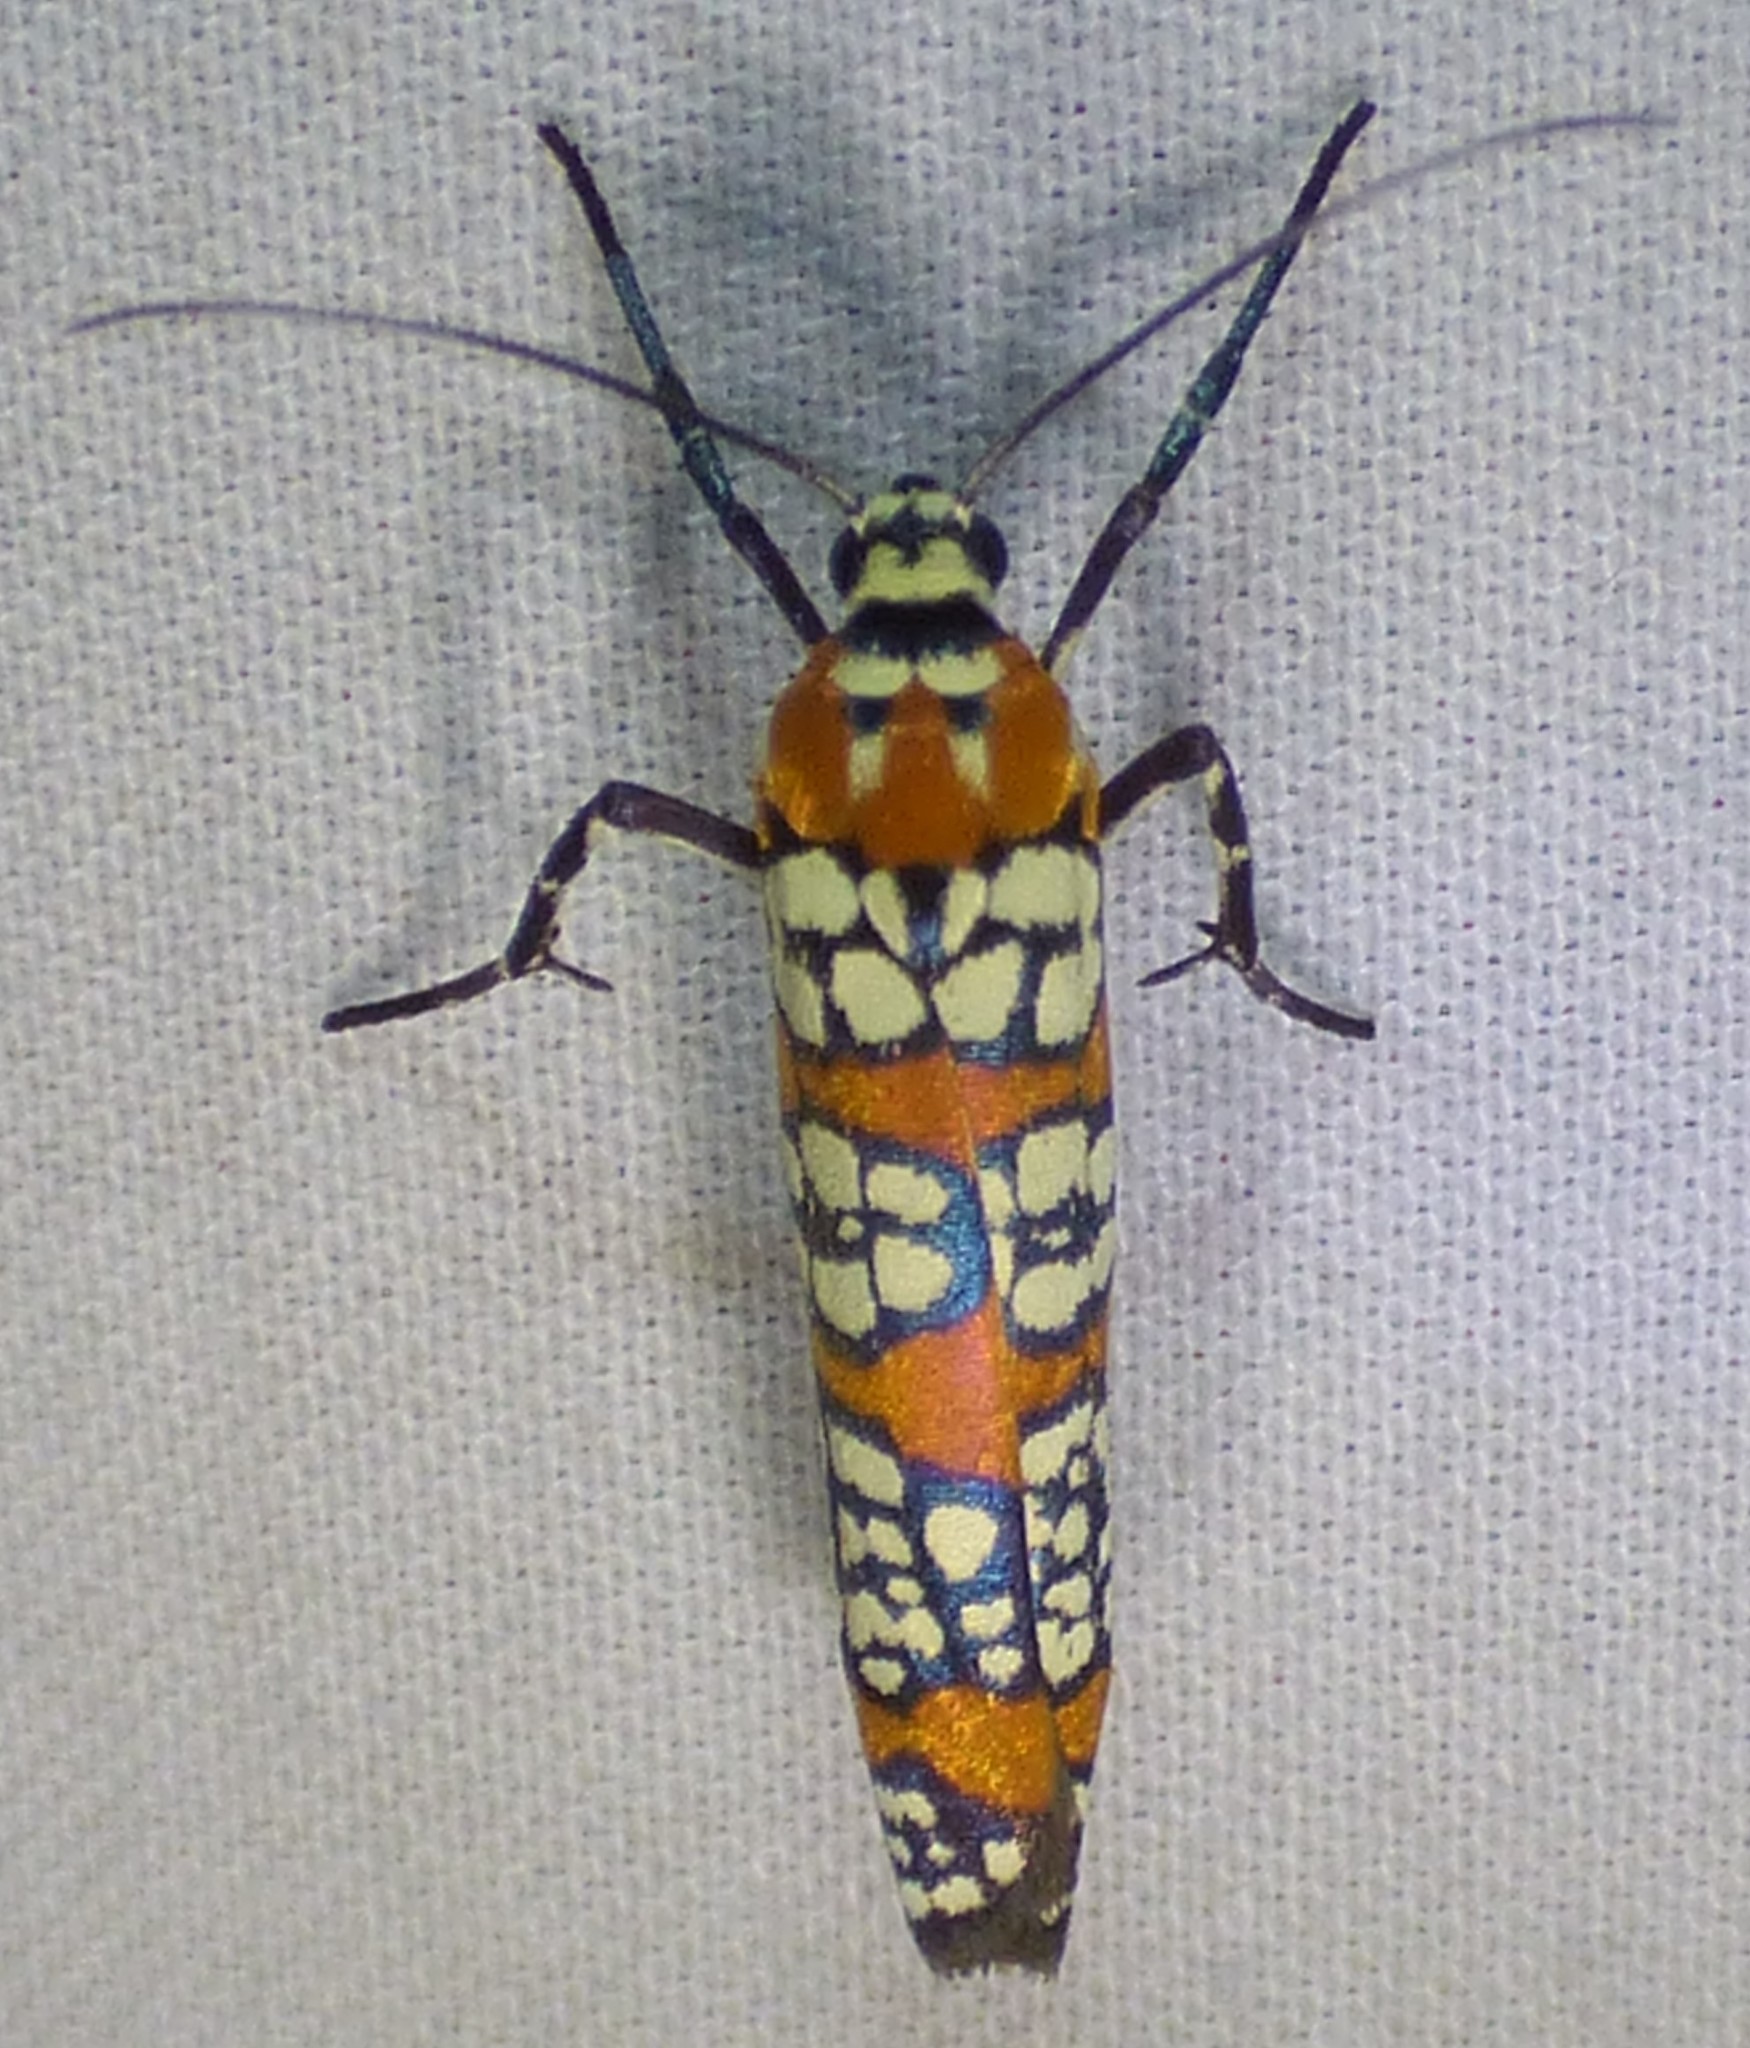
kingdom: Animalia
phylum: Arthropoda
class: Insecta
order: Lepidoptera
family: Attevidae
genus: Atteva
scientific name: Atteva punctella
